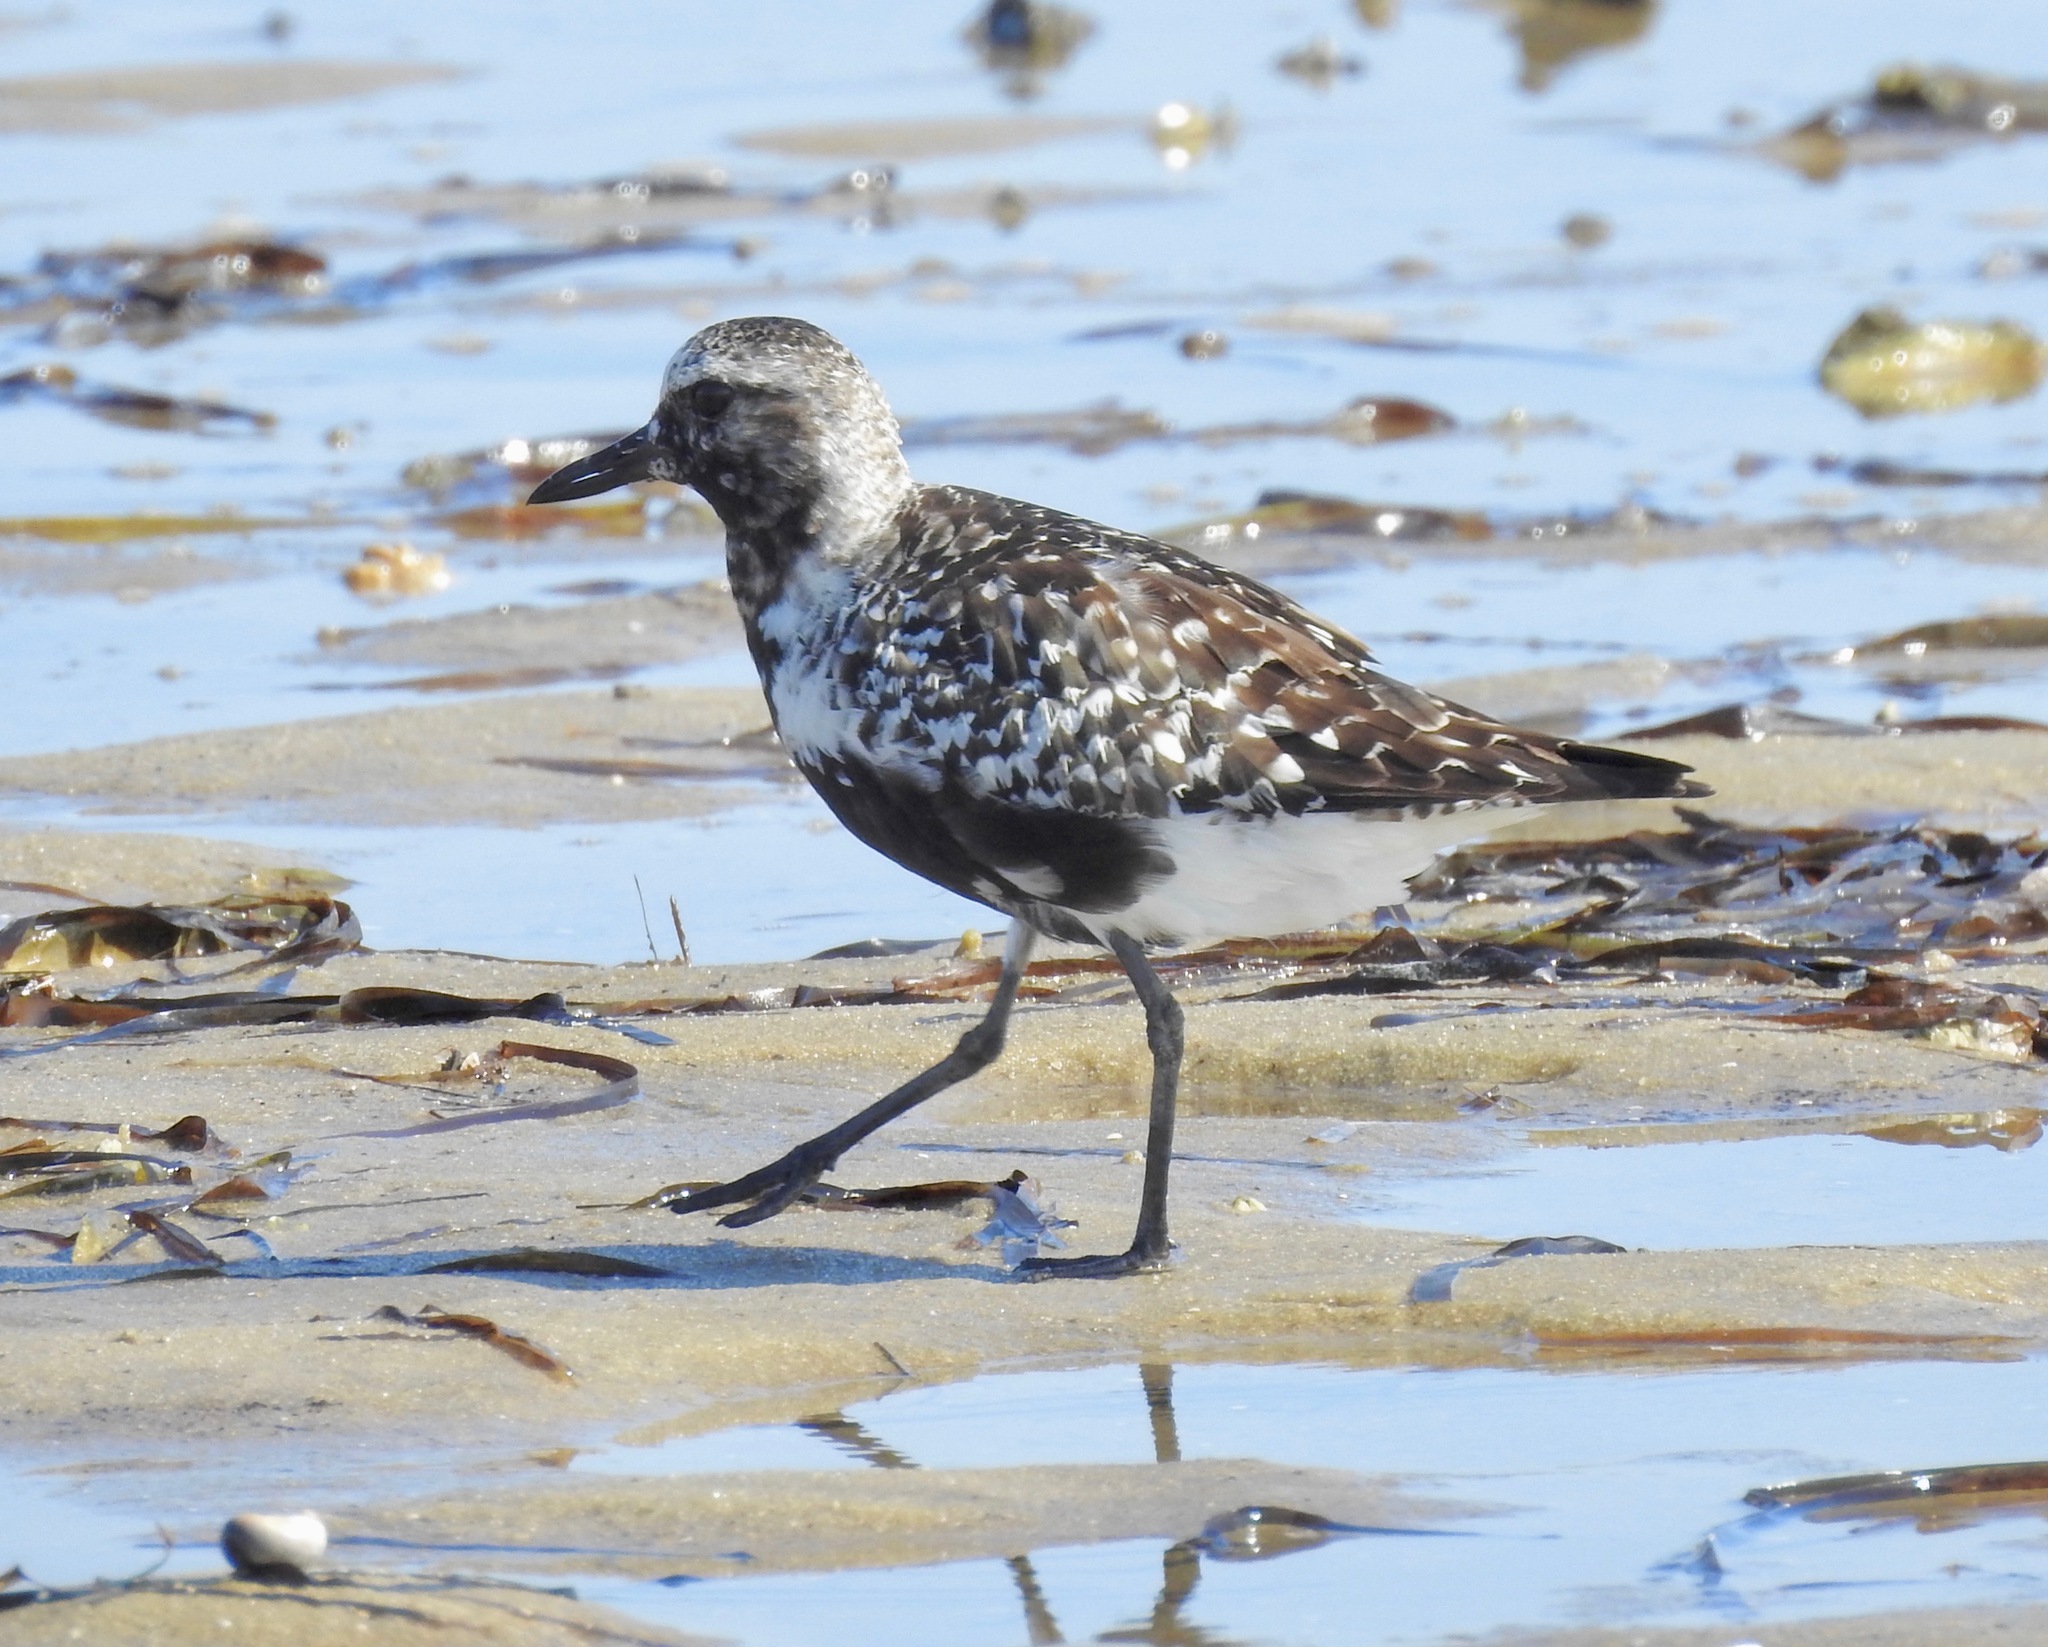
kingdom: Animalia
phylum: Chordata
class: Aves
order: Charadriiformes
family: Charadriidae
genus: Pluvialis
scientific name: Pluvialis squatarola
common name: Grey plover
